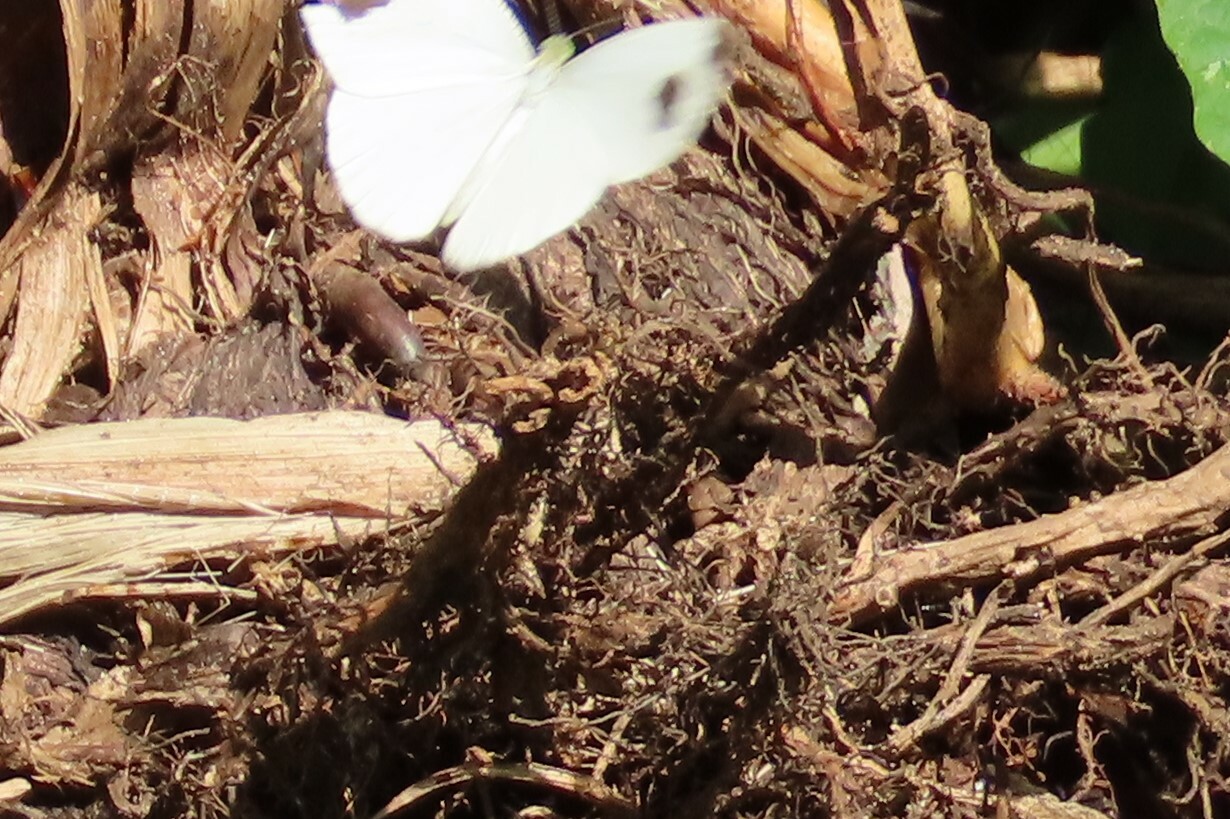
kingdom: Animalia
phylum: Arthropoda
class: Insecta
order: Lepidoptera
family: Pieridae
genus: Leptosia
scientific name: Leptosia nina
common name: Psyche
